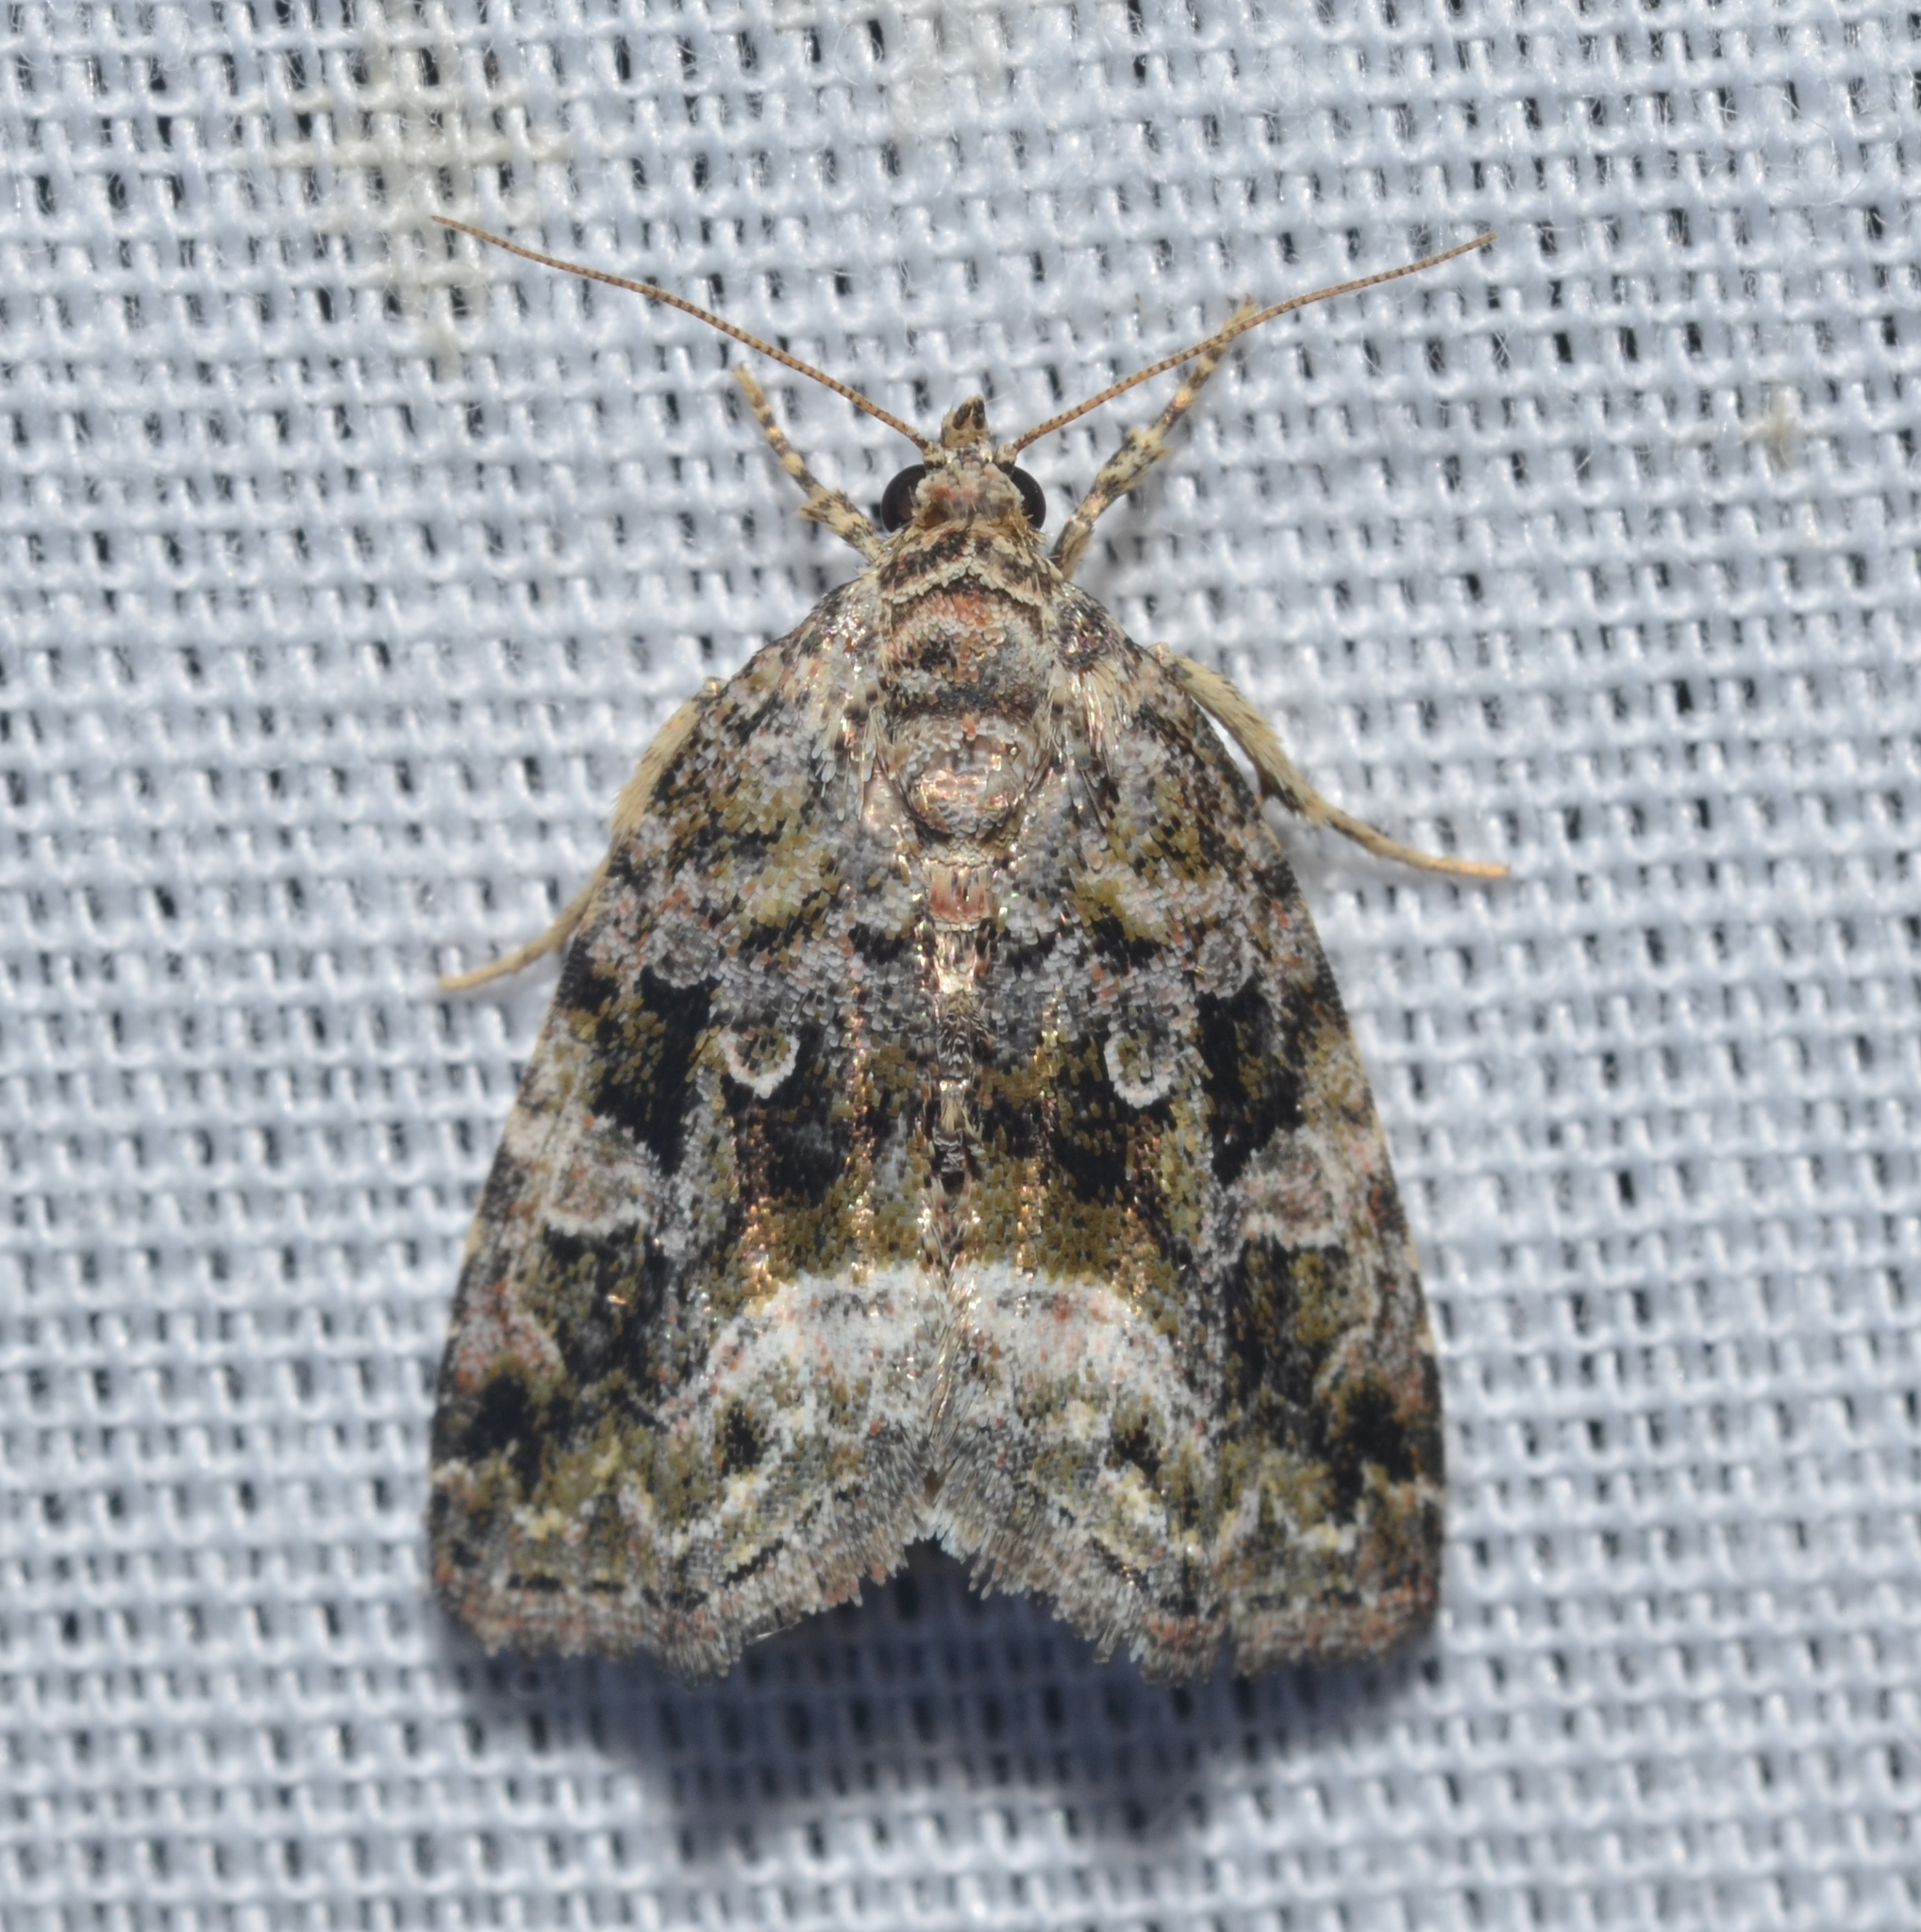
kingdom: Animalia
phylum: Arthropoda
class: Insecta
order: Lepidoptera
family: Noctuidae
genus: Protodeltote
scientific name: Protodeltote muscosula
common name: Large mossy glyph
